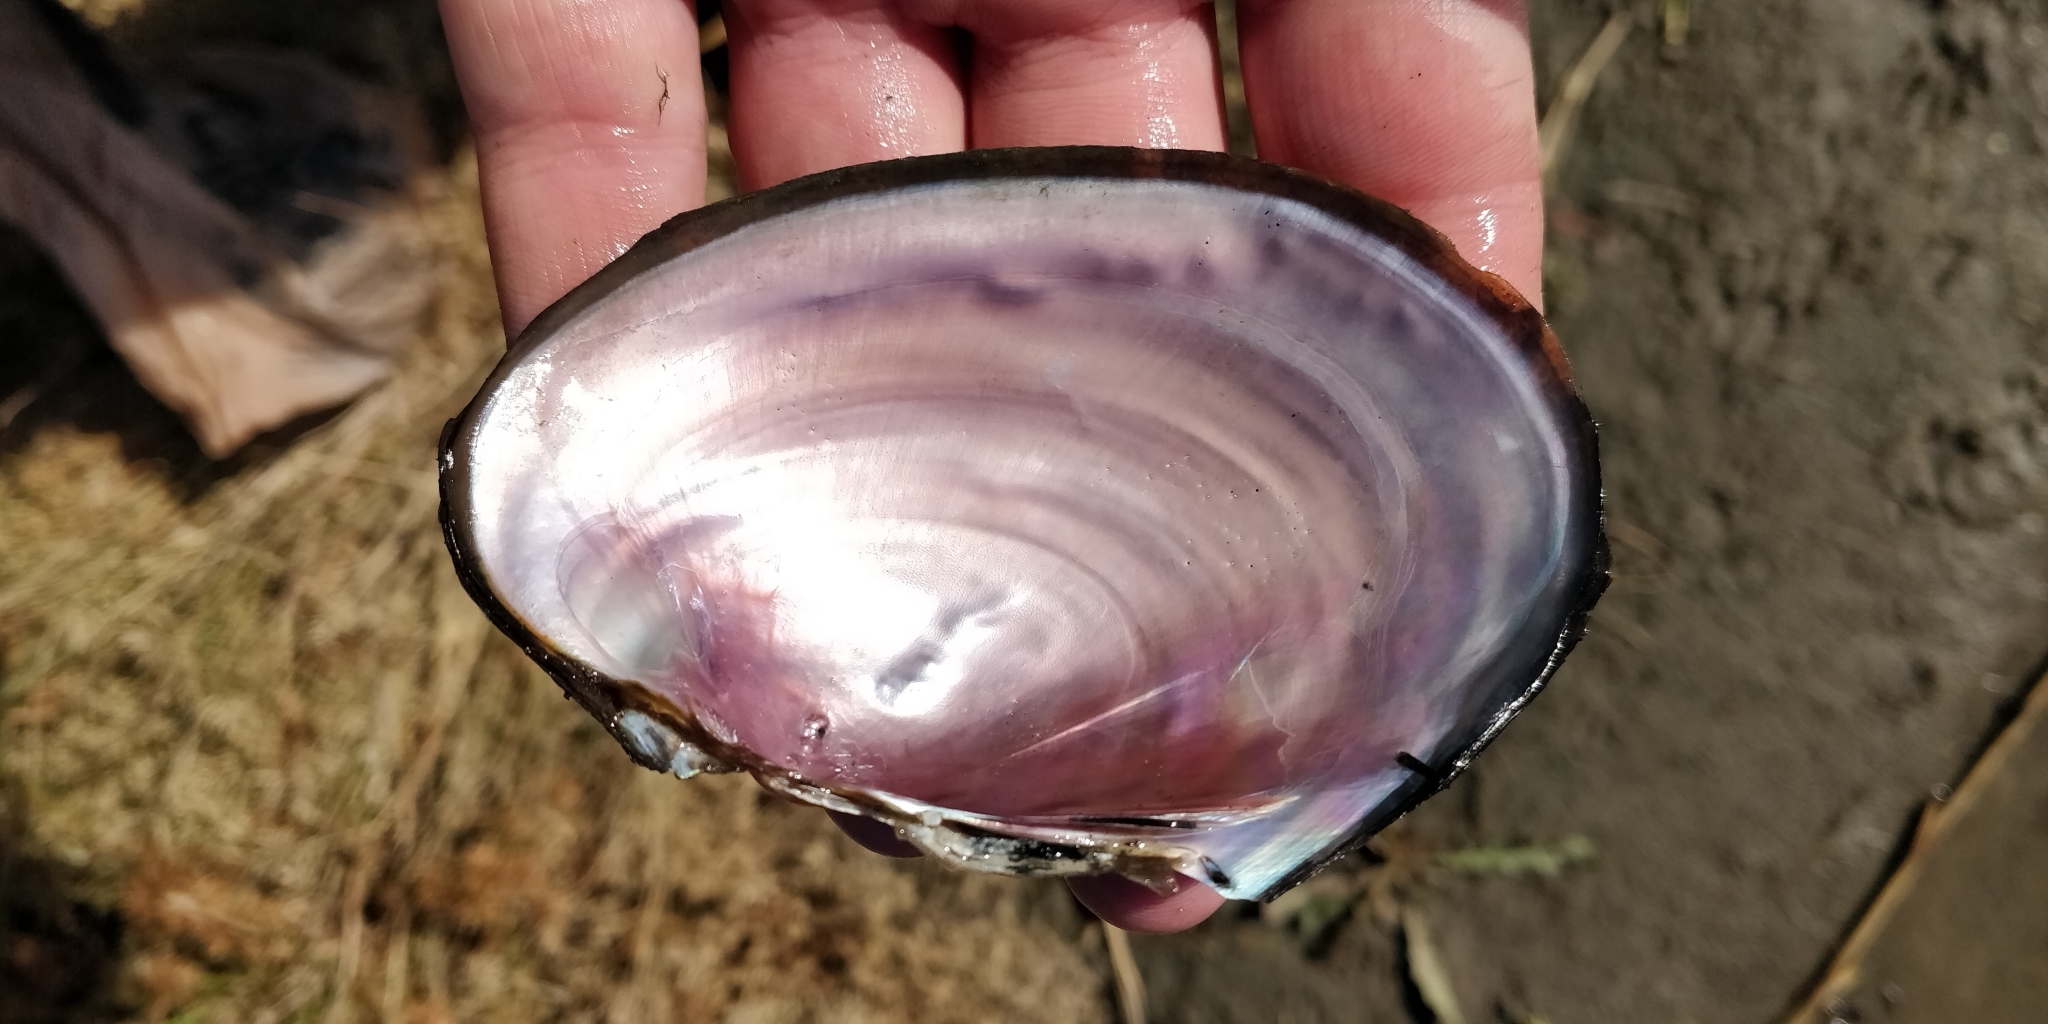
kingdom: Animalia
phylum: Mollusca
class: Bivalvia
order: Unionida
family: Unionidae
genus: Potamilus
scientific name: Potamilus ohiensis
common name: Pink papershell
